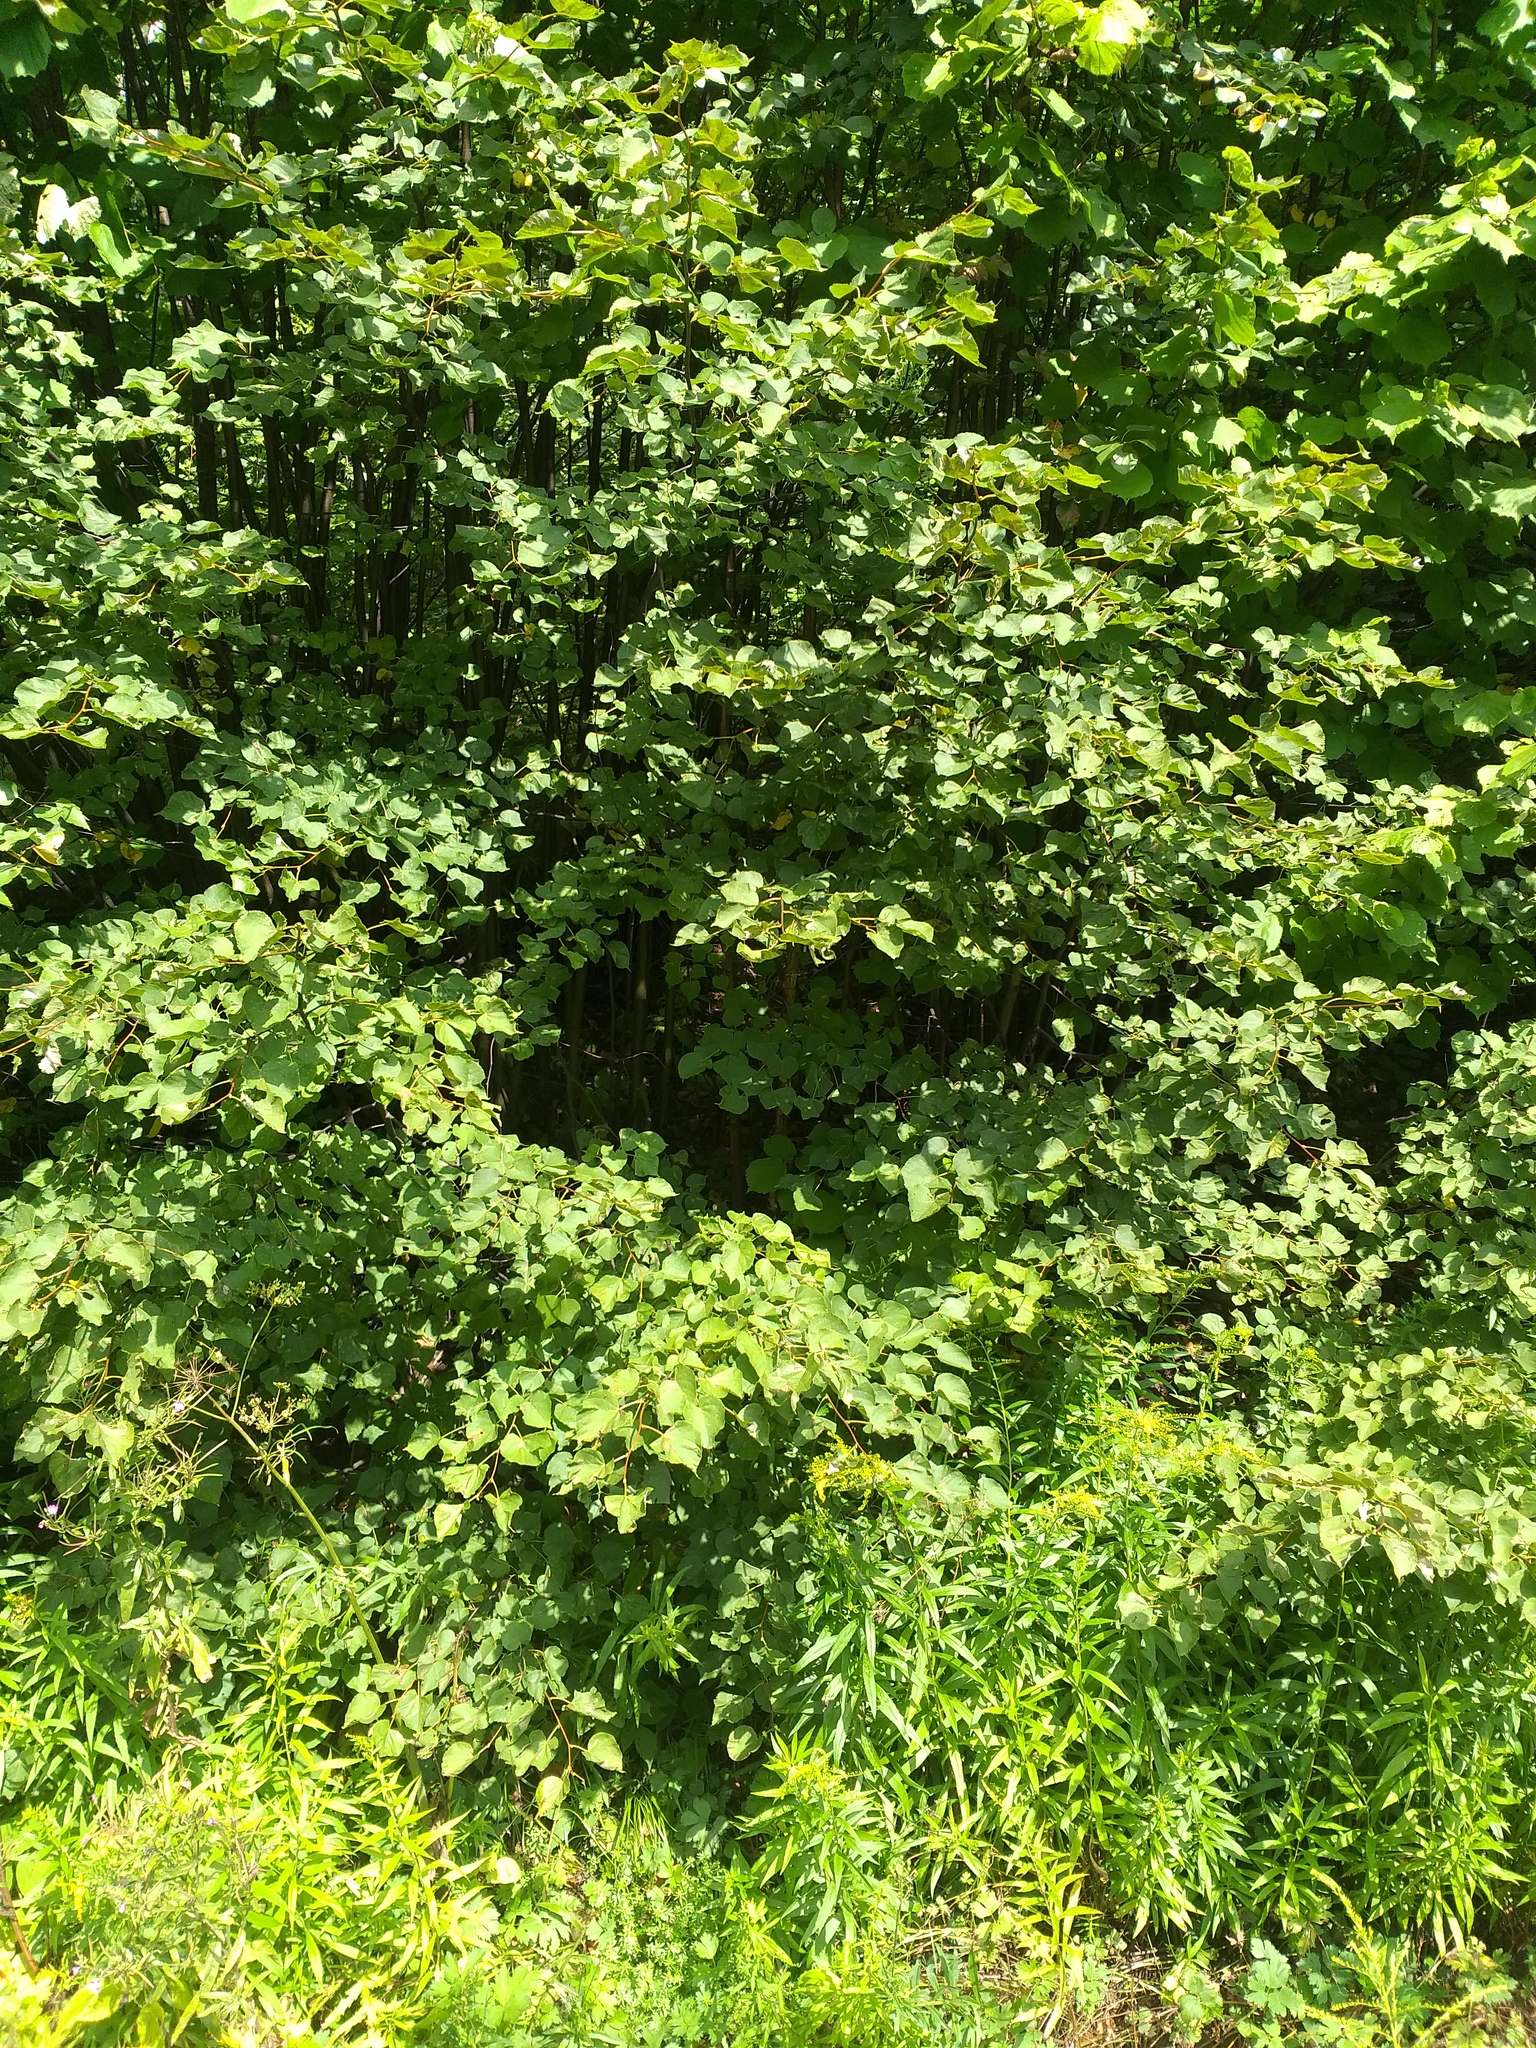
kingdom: Plantae
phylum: Tracheophyta
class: Magnoliopsida
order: Malvales
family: Malvaceae
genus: Tilia
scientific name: Tilia cordata
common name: Small-leaved lime
